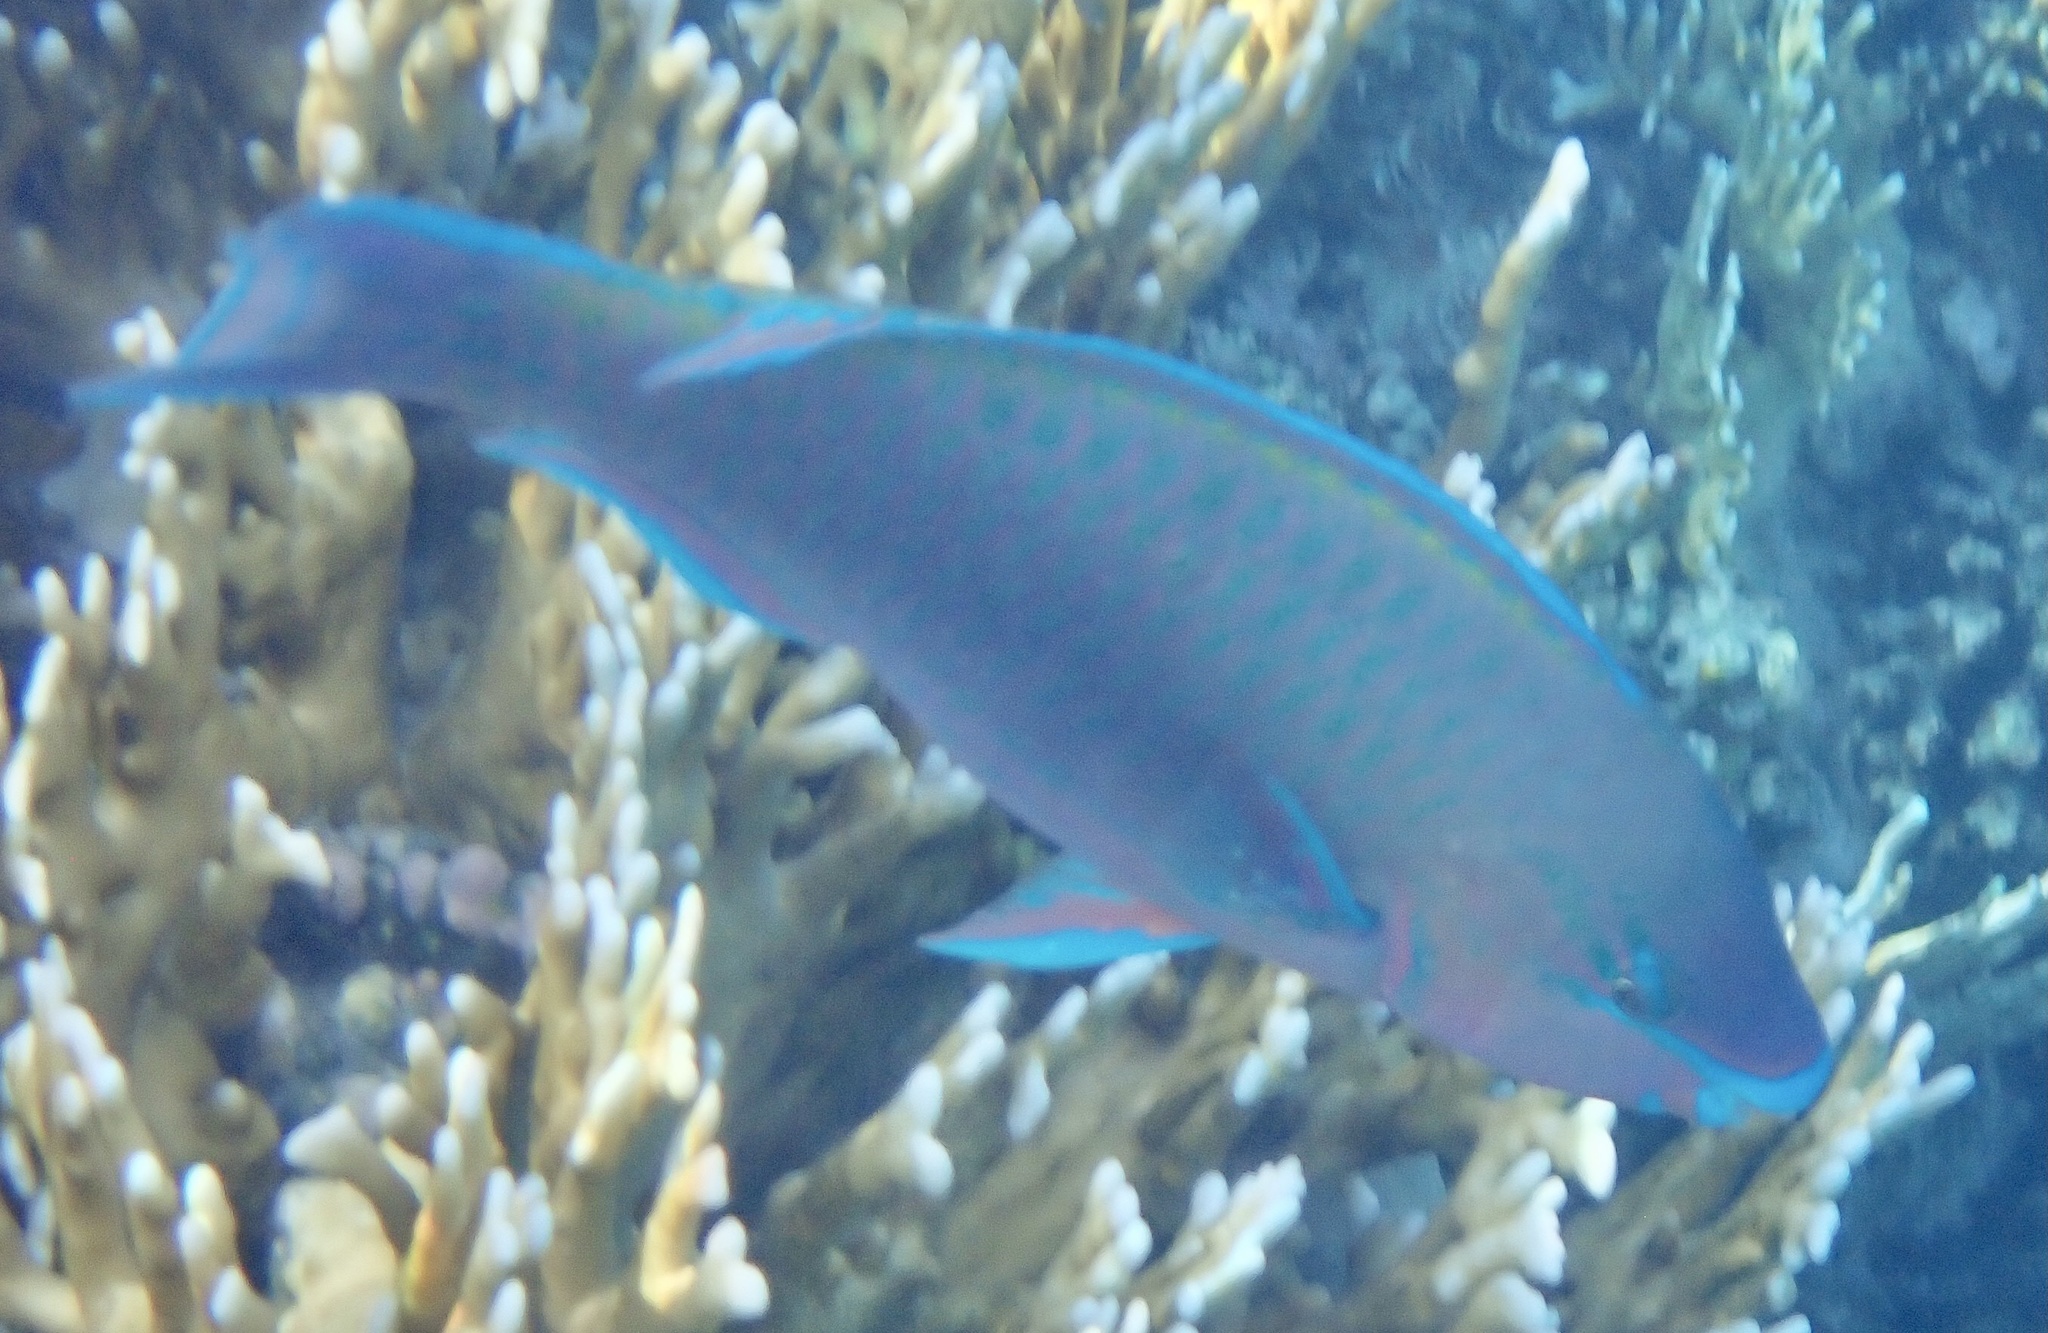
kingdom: Animalia
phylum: Chordata
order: Perciformes
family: Scaridae
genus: Scarus
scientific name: Scarus psittacus
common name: Palenose parrotfish
